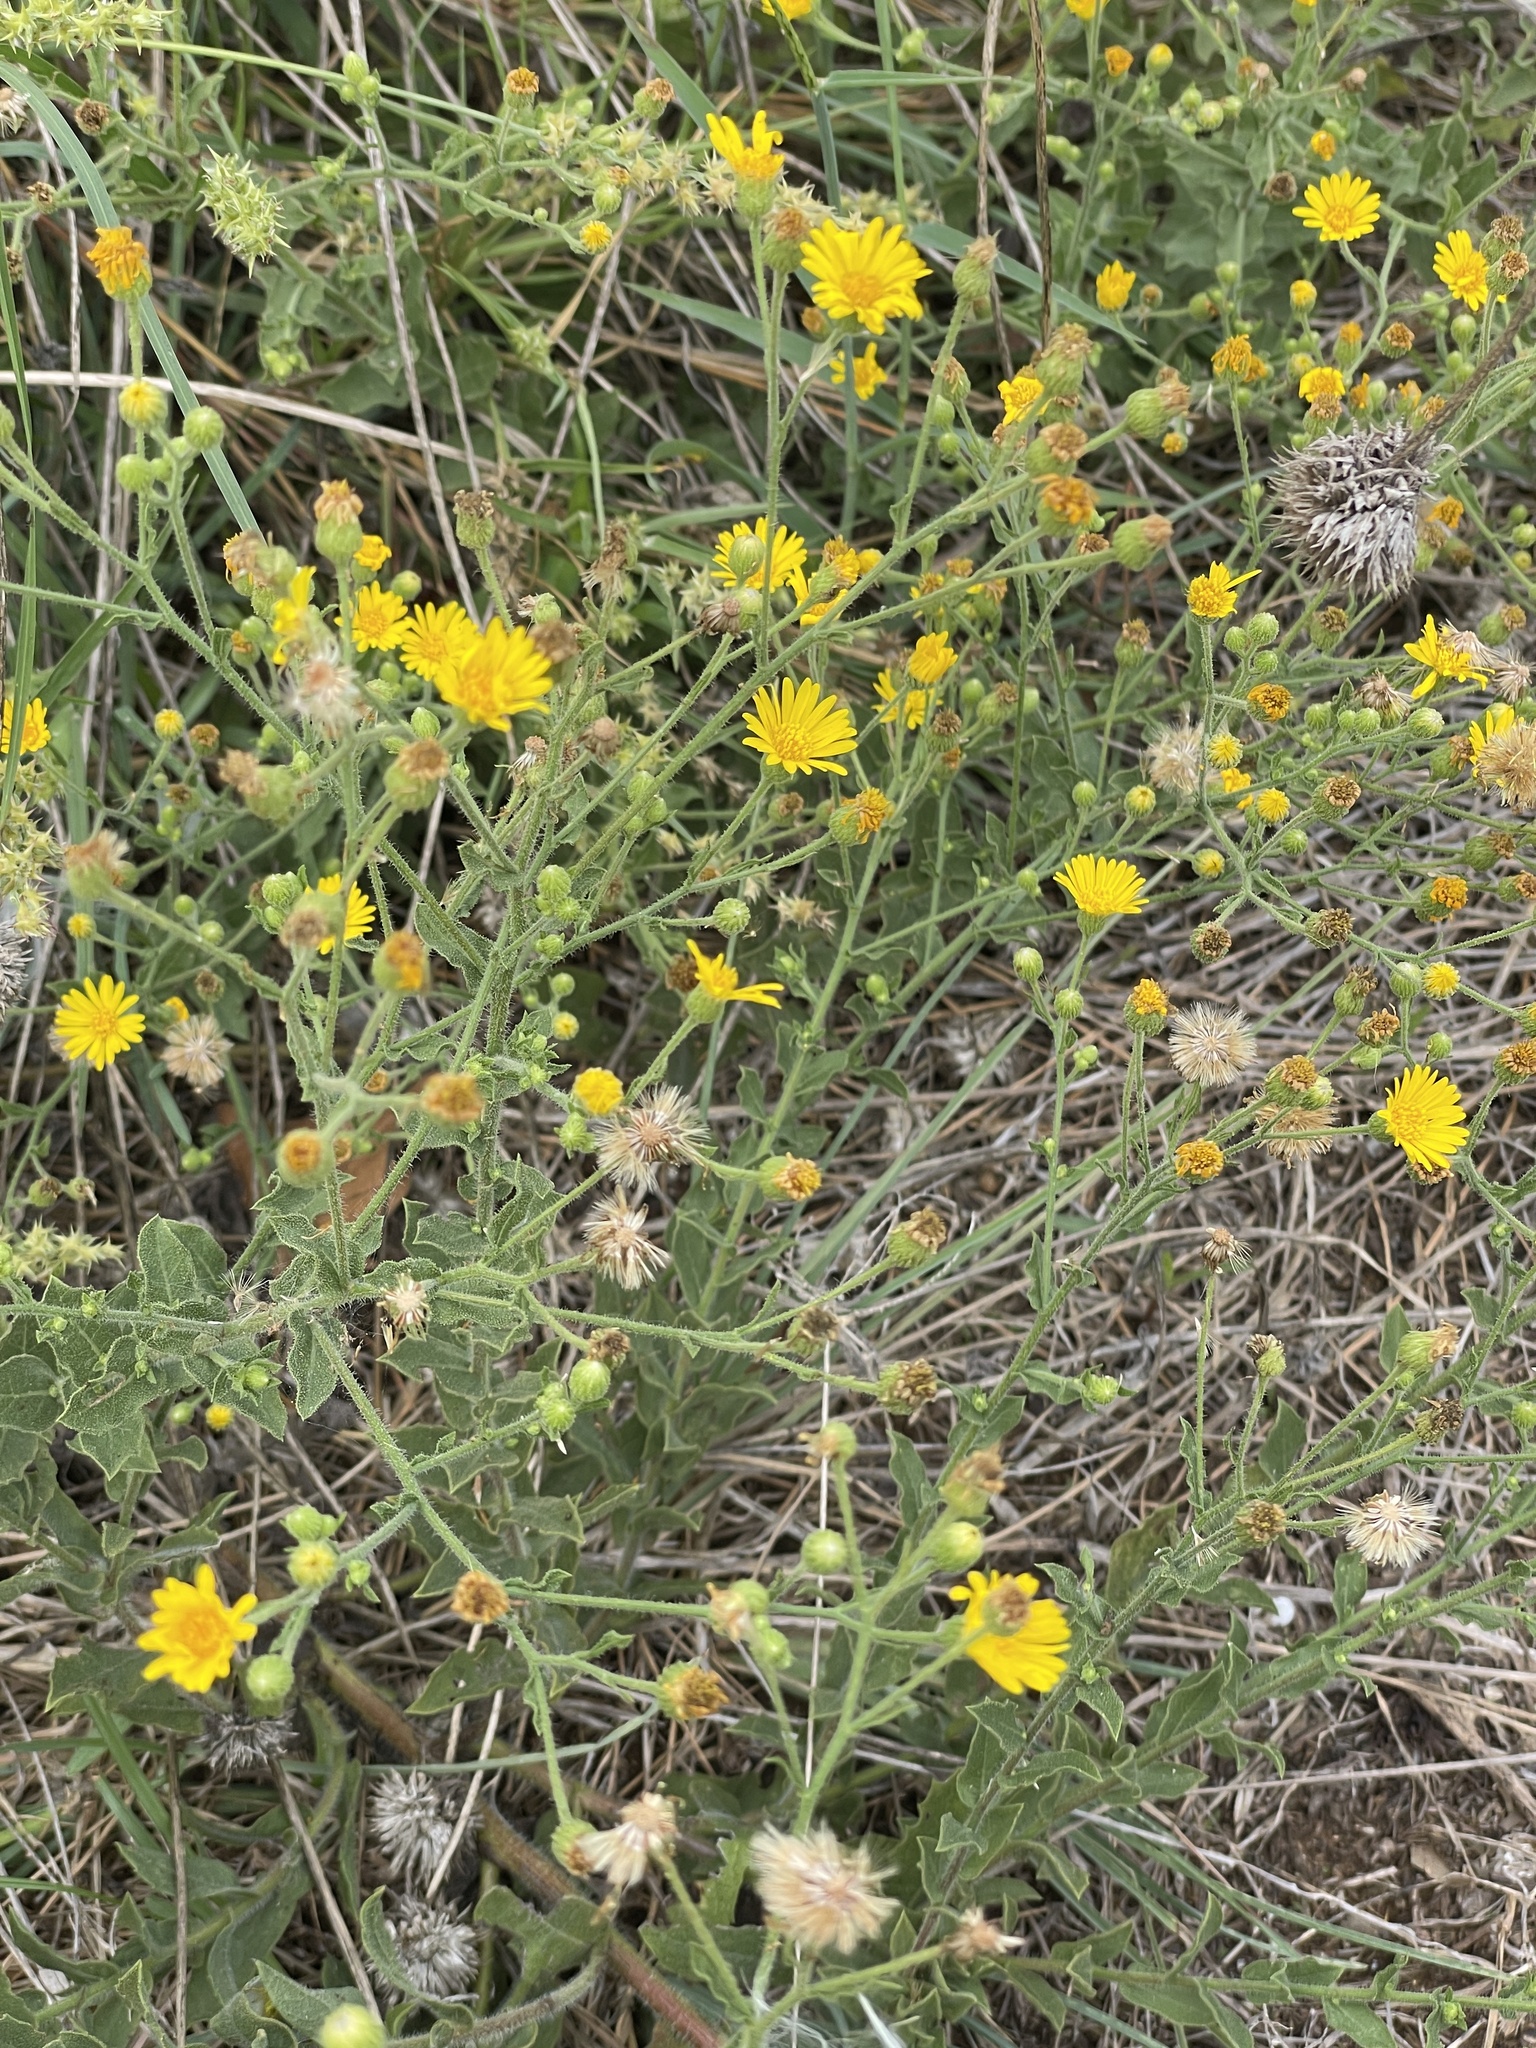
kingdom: Plantae
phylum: Tracheophyta
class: Magnoliopsida
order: Asterales
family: Asteraceae
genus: Heterotheca
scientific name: Heterotheca subaxillaris
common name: Camphorweed
